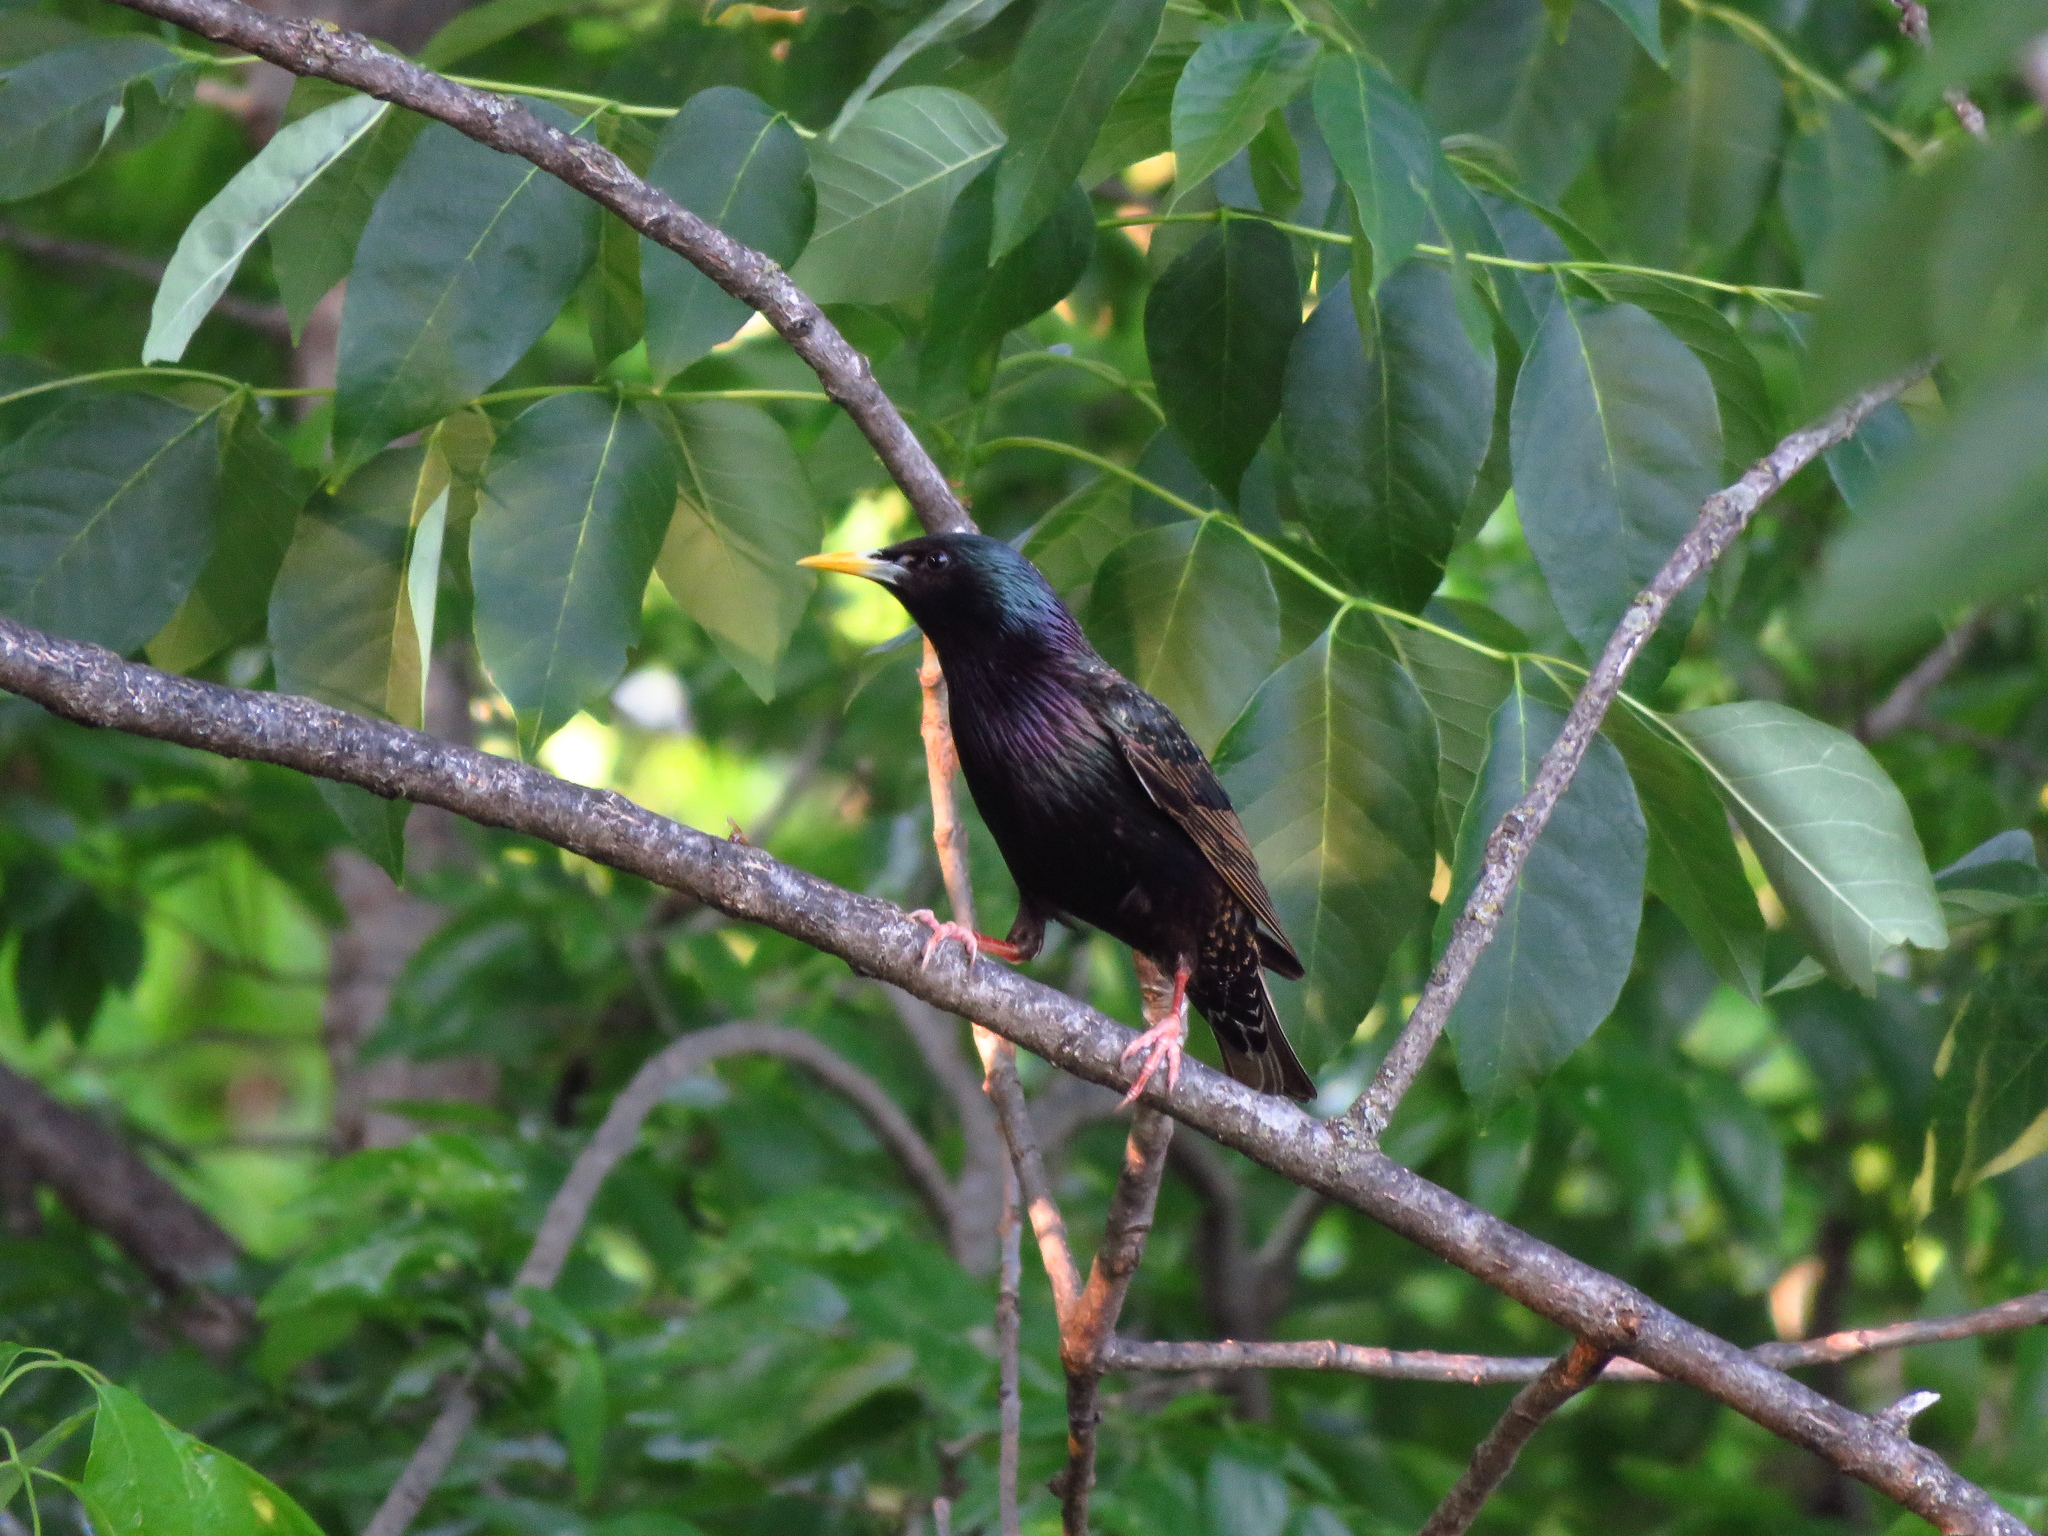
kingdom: Animalia
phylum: Chordata
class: Aves
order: Passeriformes
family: Sturnidae
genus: Sturnus
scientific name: Sturnus vulgaris
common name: Common starling
